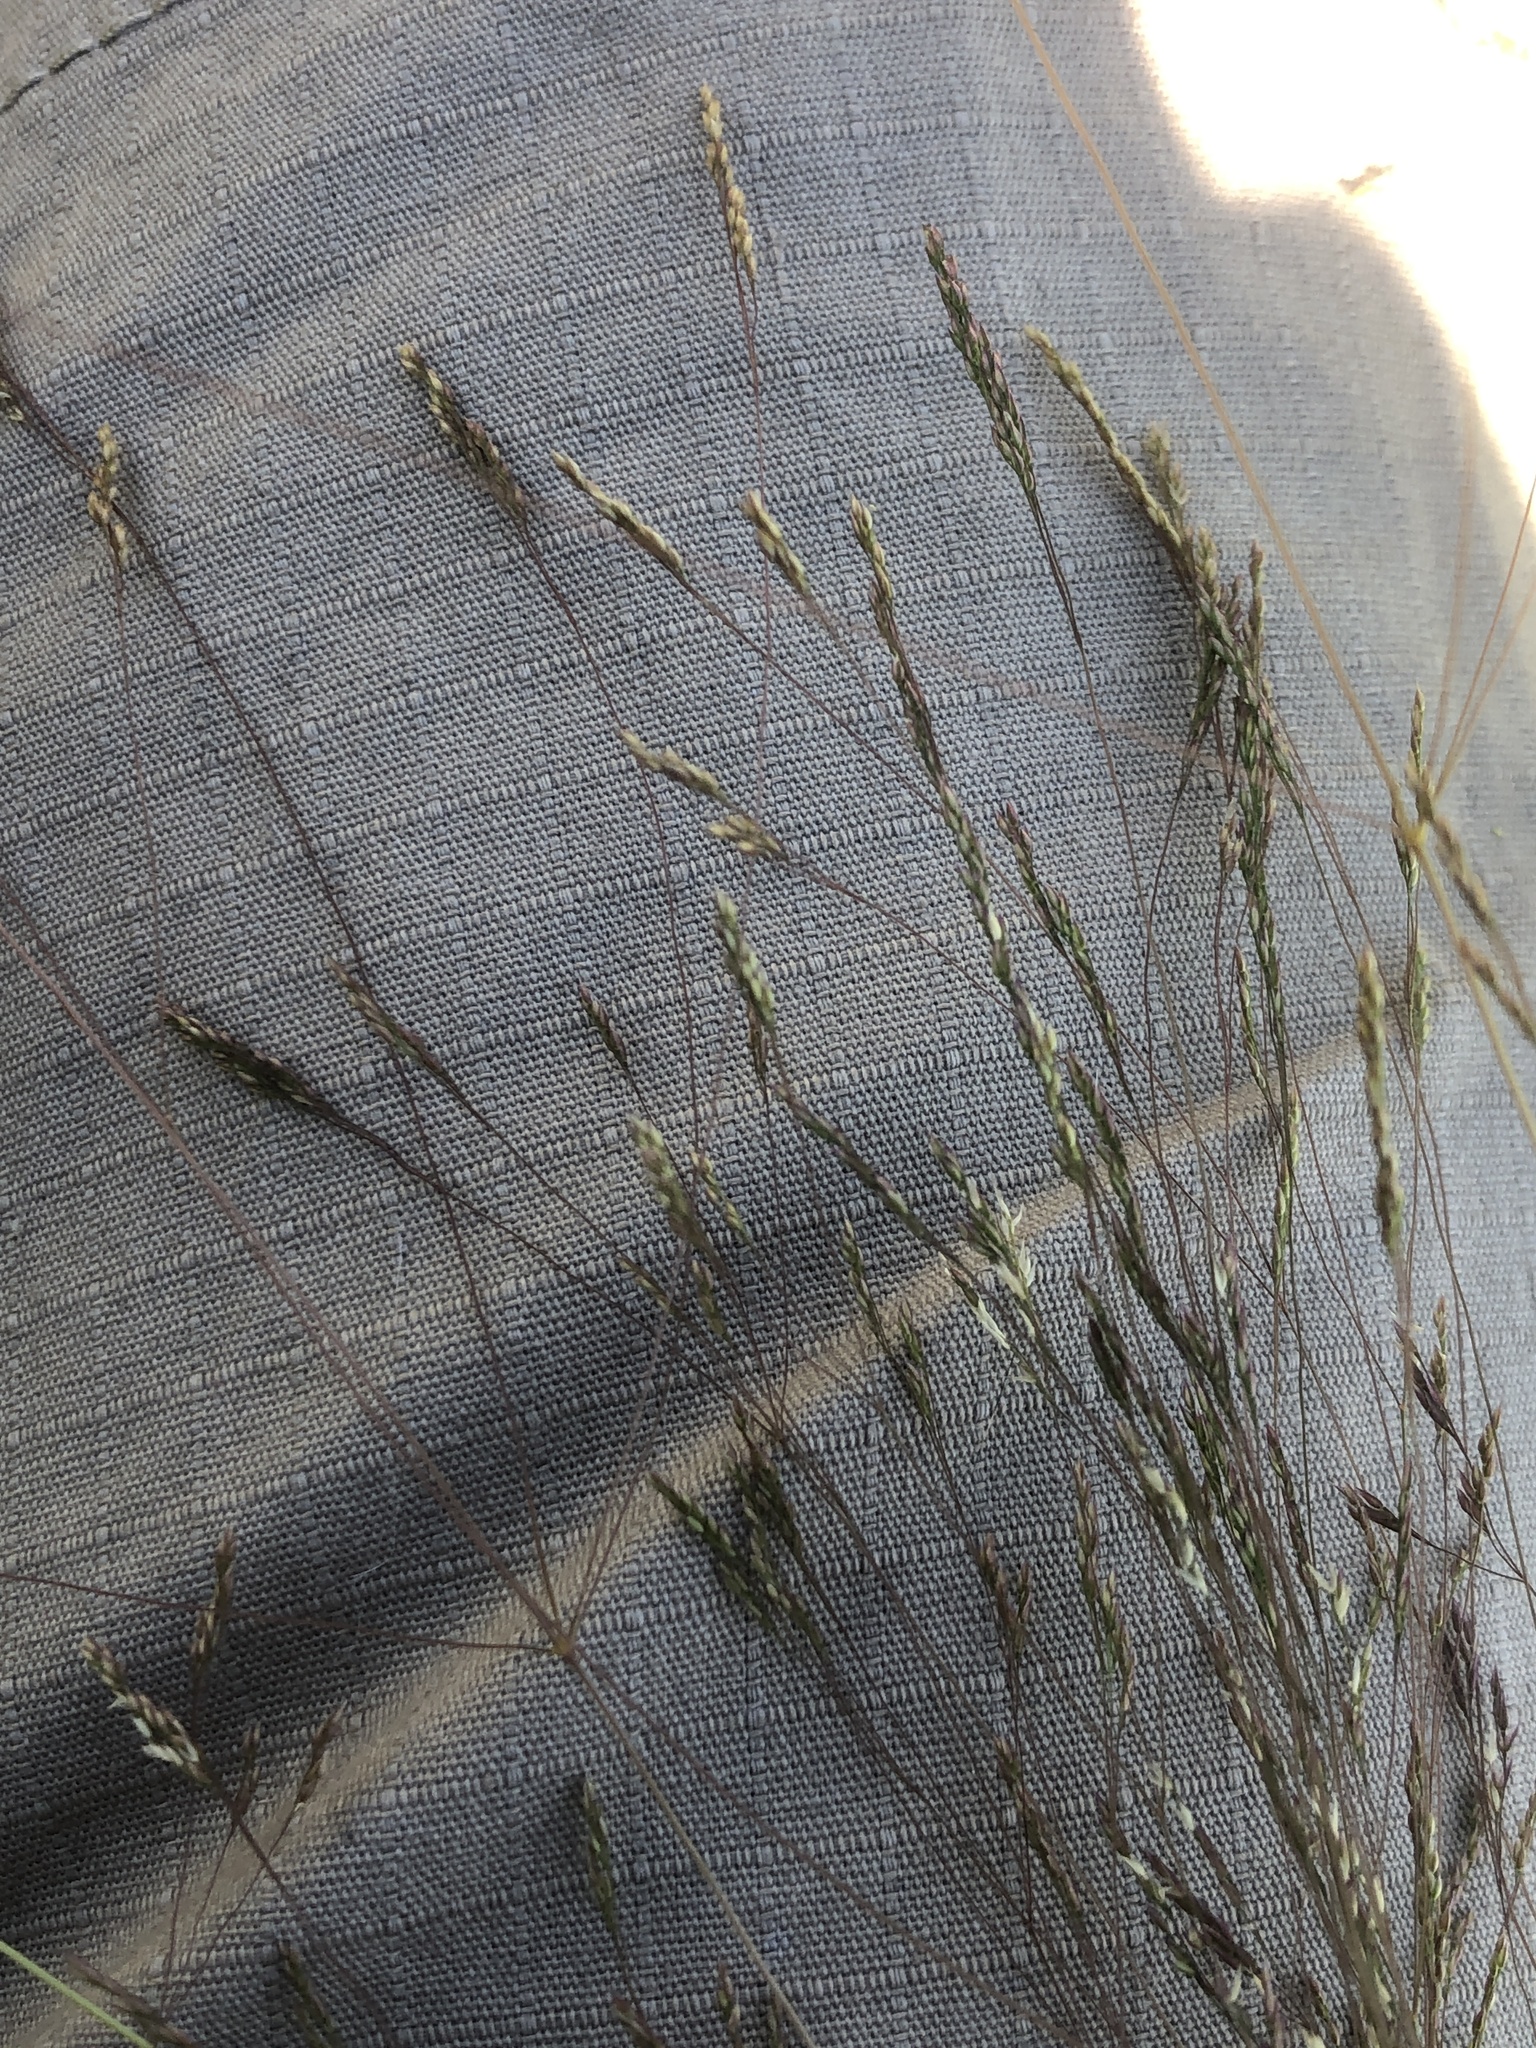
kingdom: Plantae
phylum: Tracheophyta
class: Liliopsida
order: Poales
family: Poaceae
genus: Agrostis
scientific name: Agrostis hyemalis
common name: Small bent
